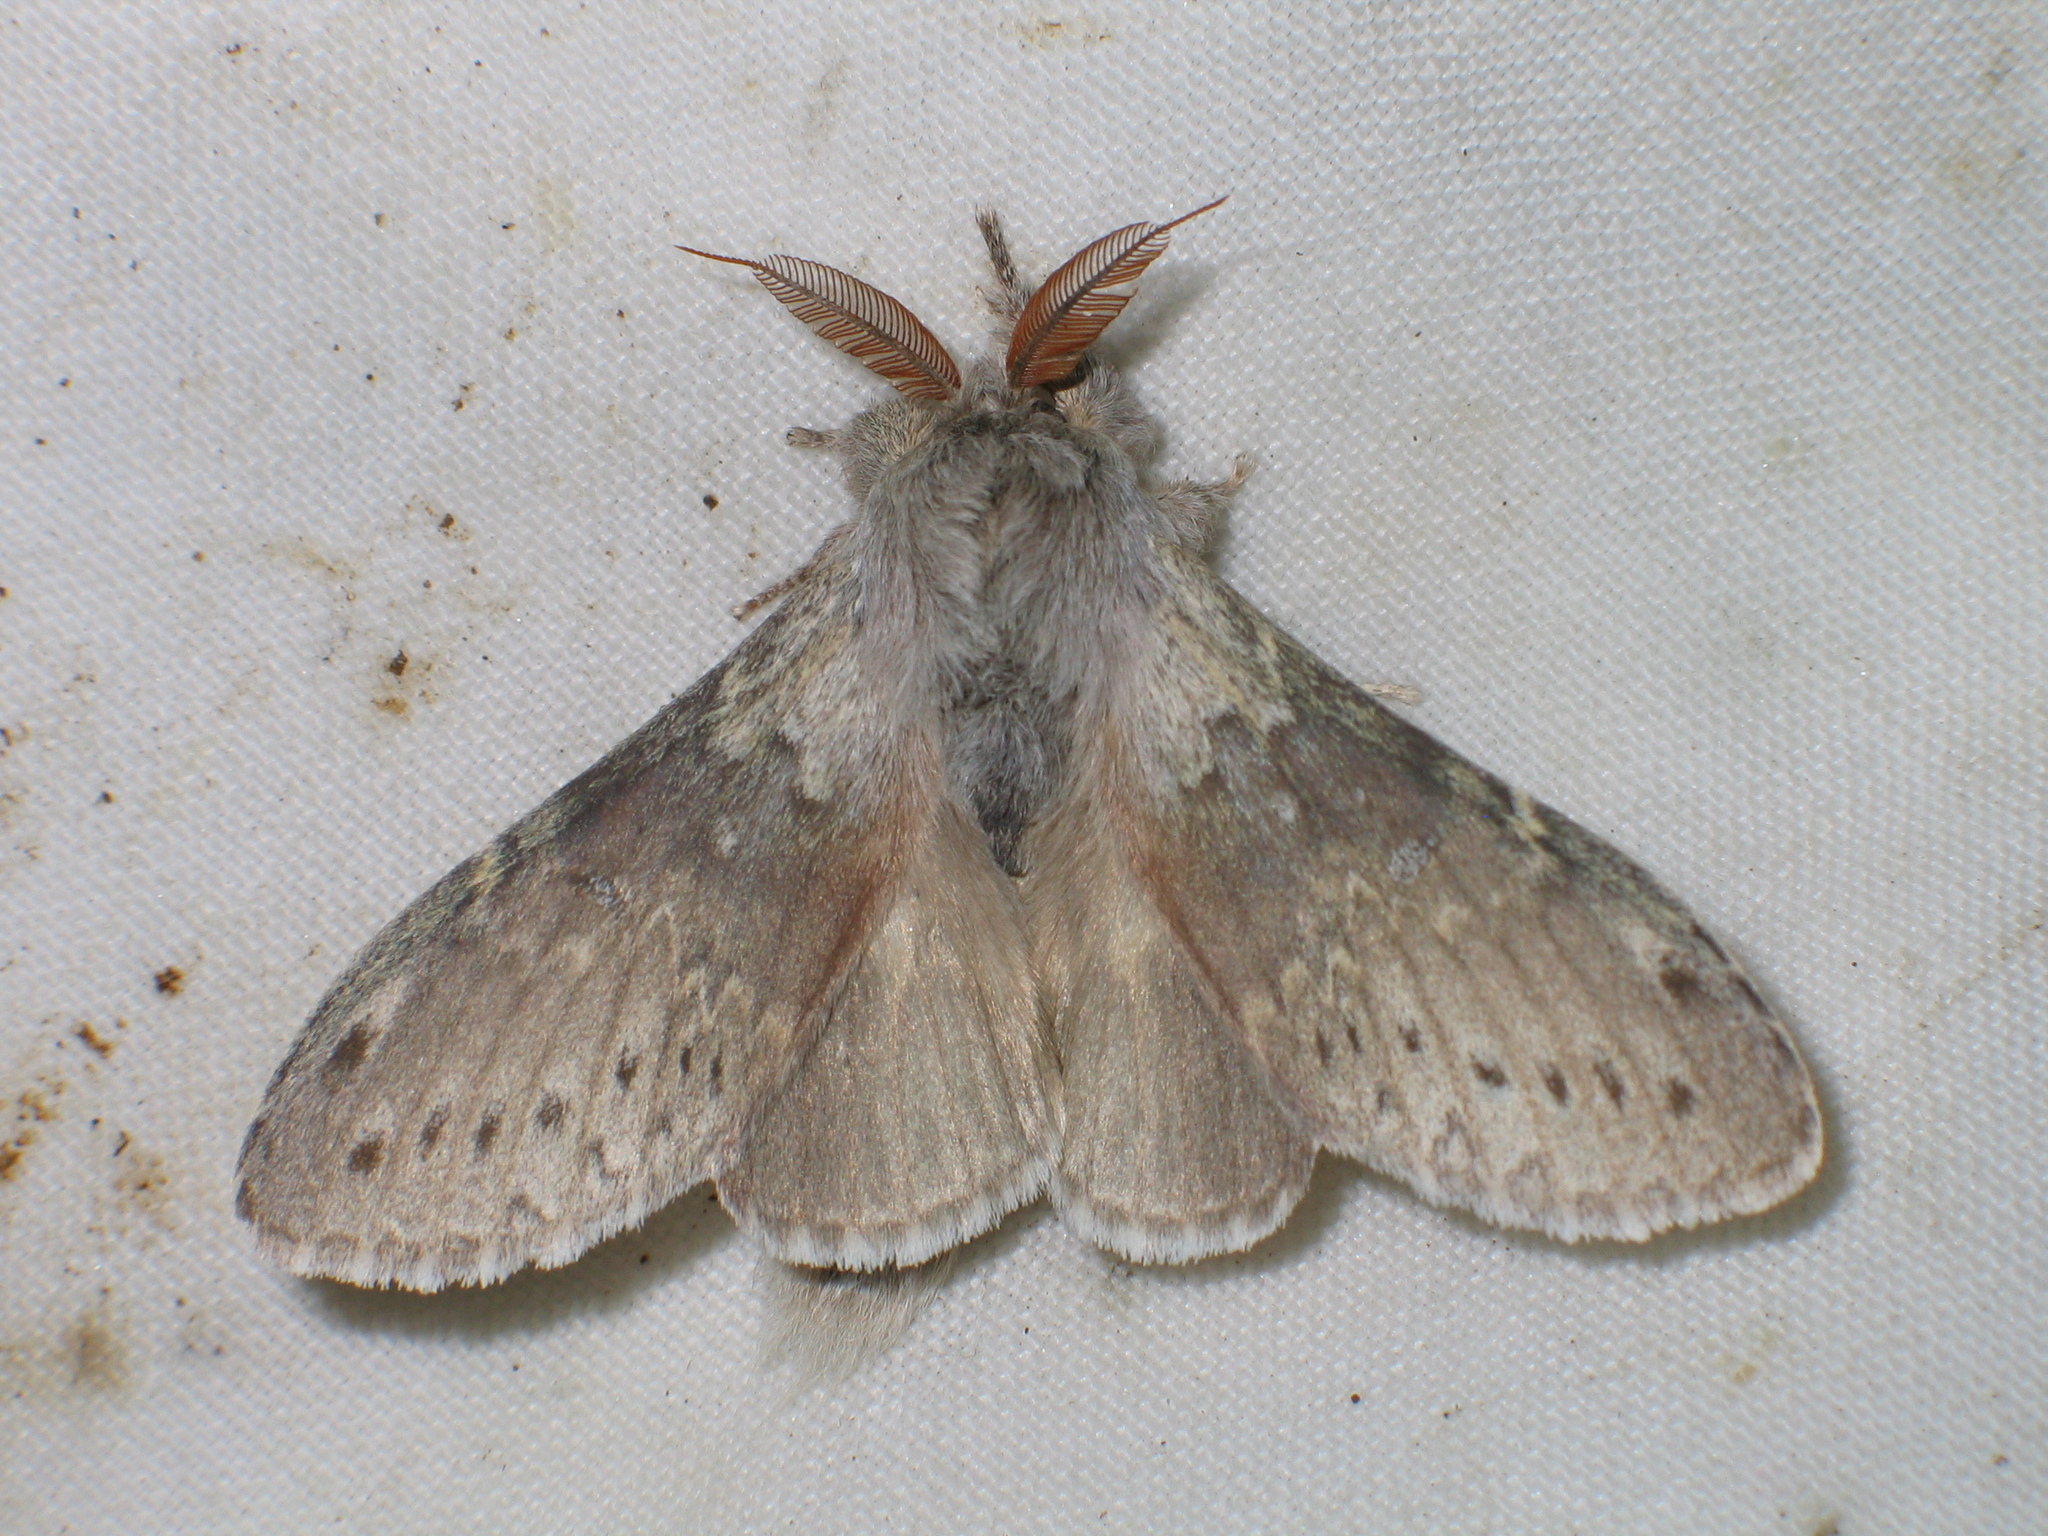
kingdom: Animalia
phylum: Arthropoda
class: Insecta
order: Lepidoptera
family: Notodontidae
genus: Stauropus
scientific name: Stauropus fagi
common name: Lobster moth
